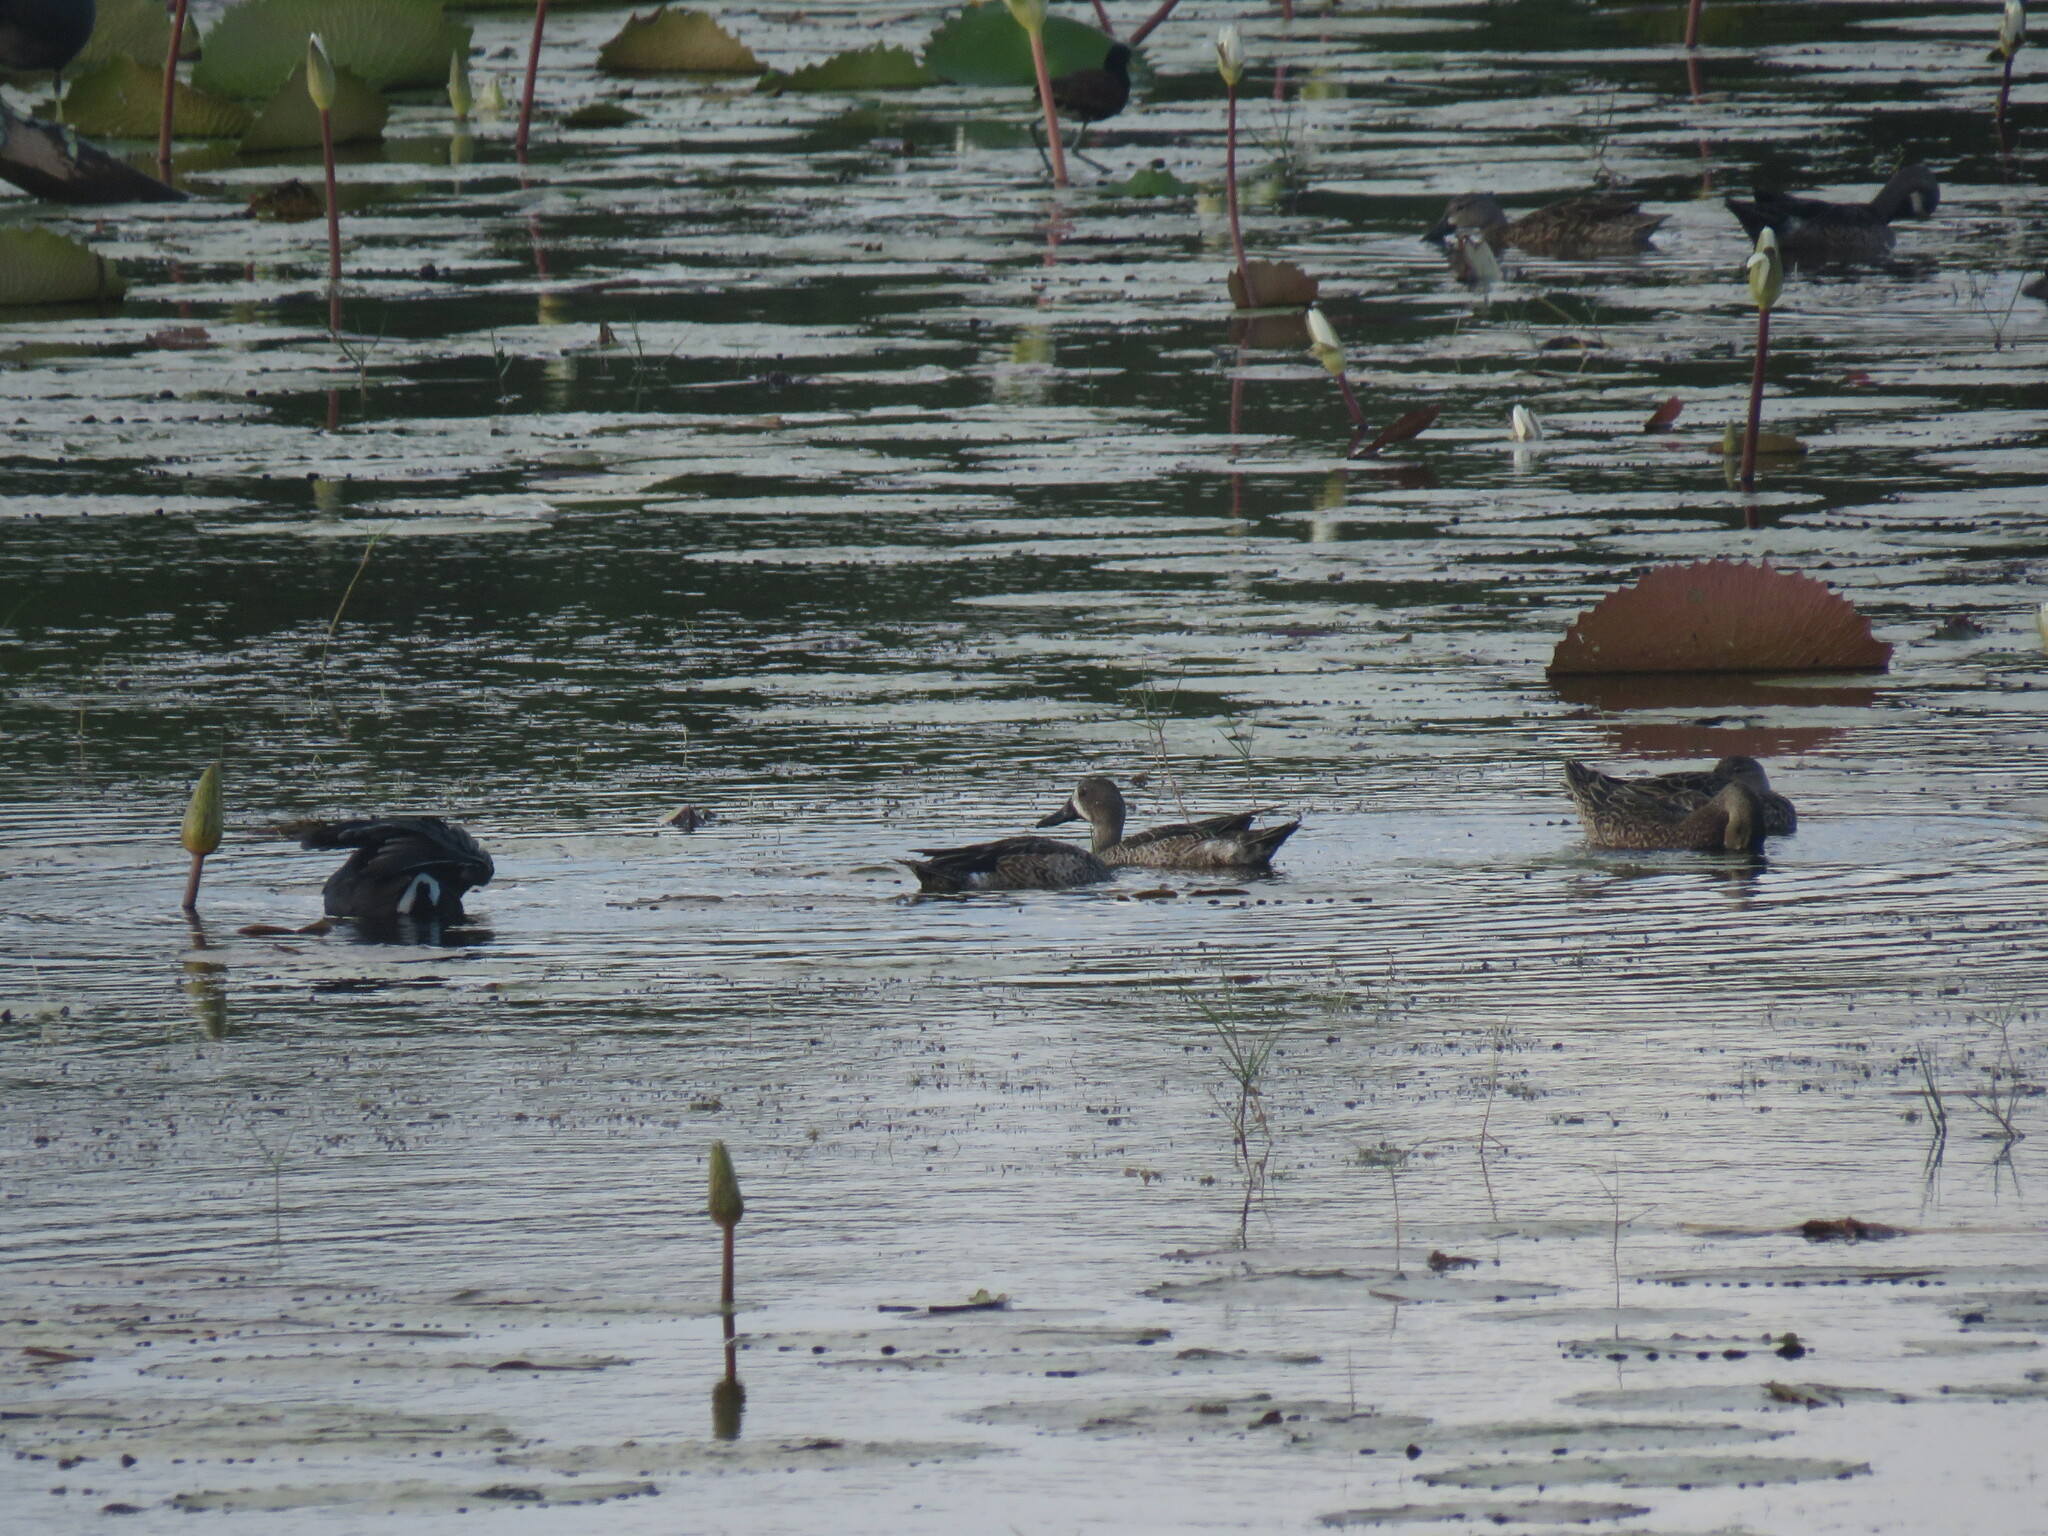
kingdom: Animalia
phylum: Chordata
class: Aves
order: Anseriformes
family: Anatidae
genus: Spatula
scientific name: Spatula discors
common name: Blue-winged teal
